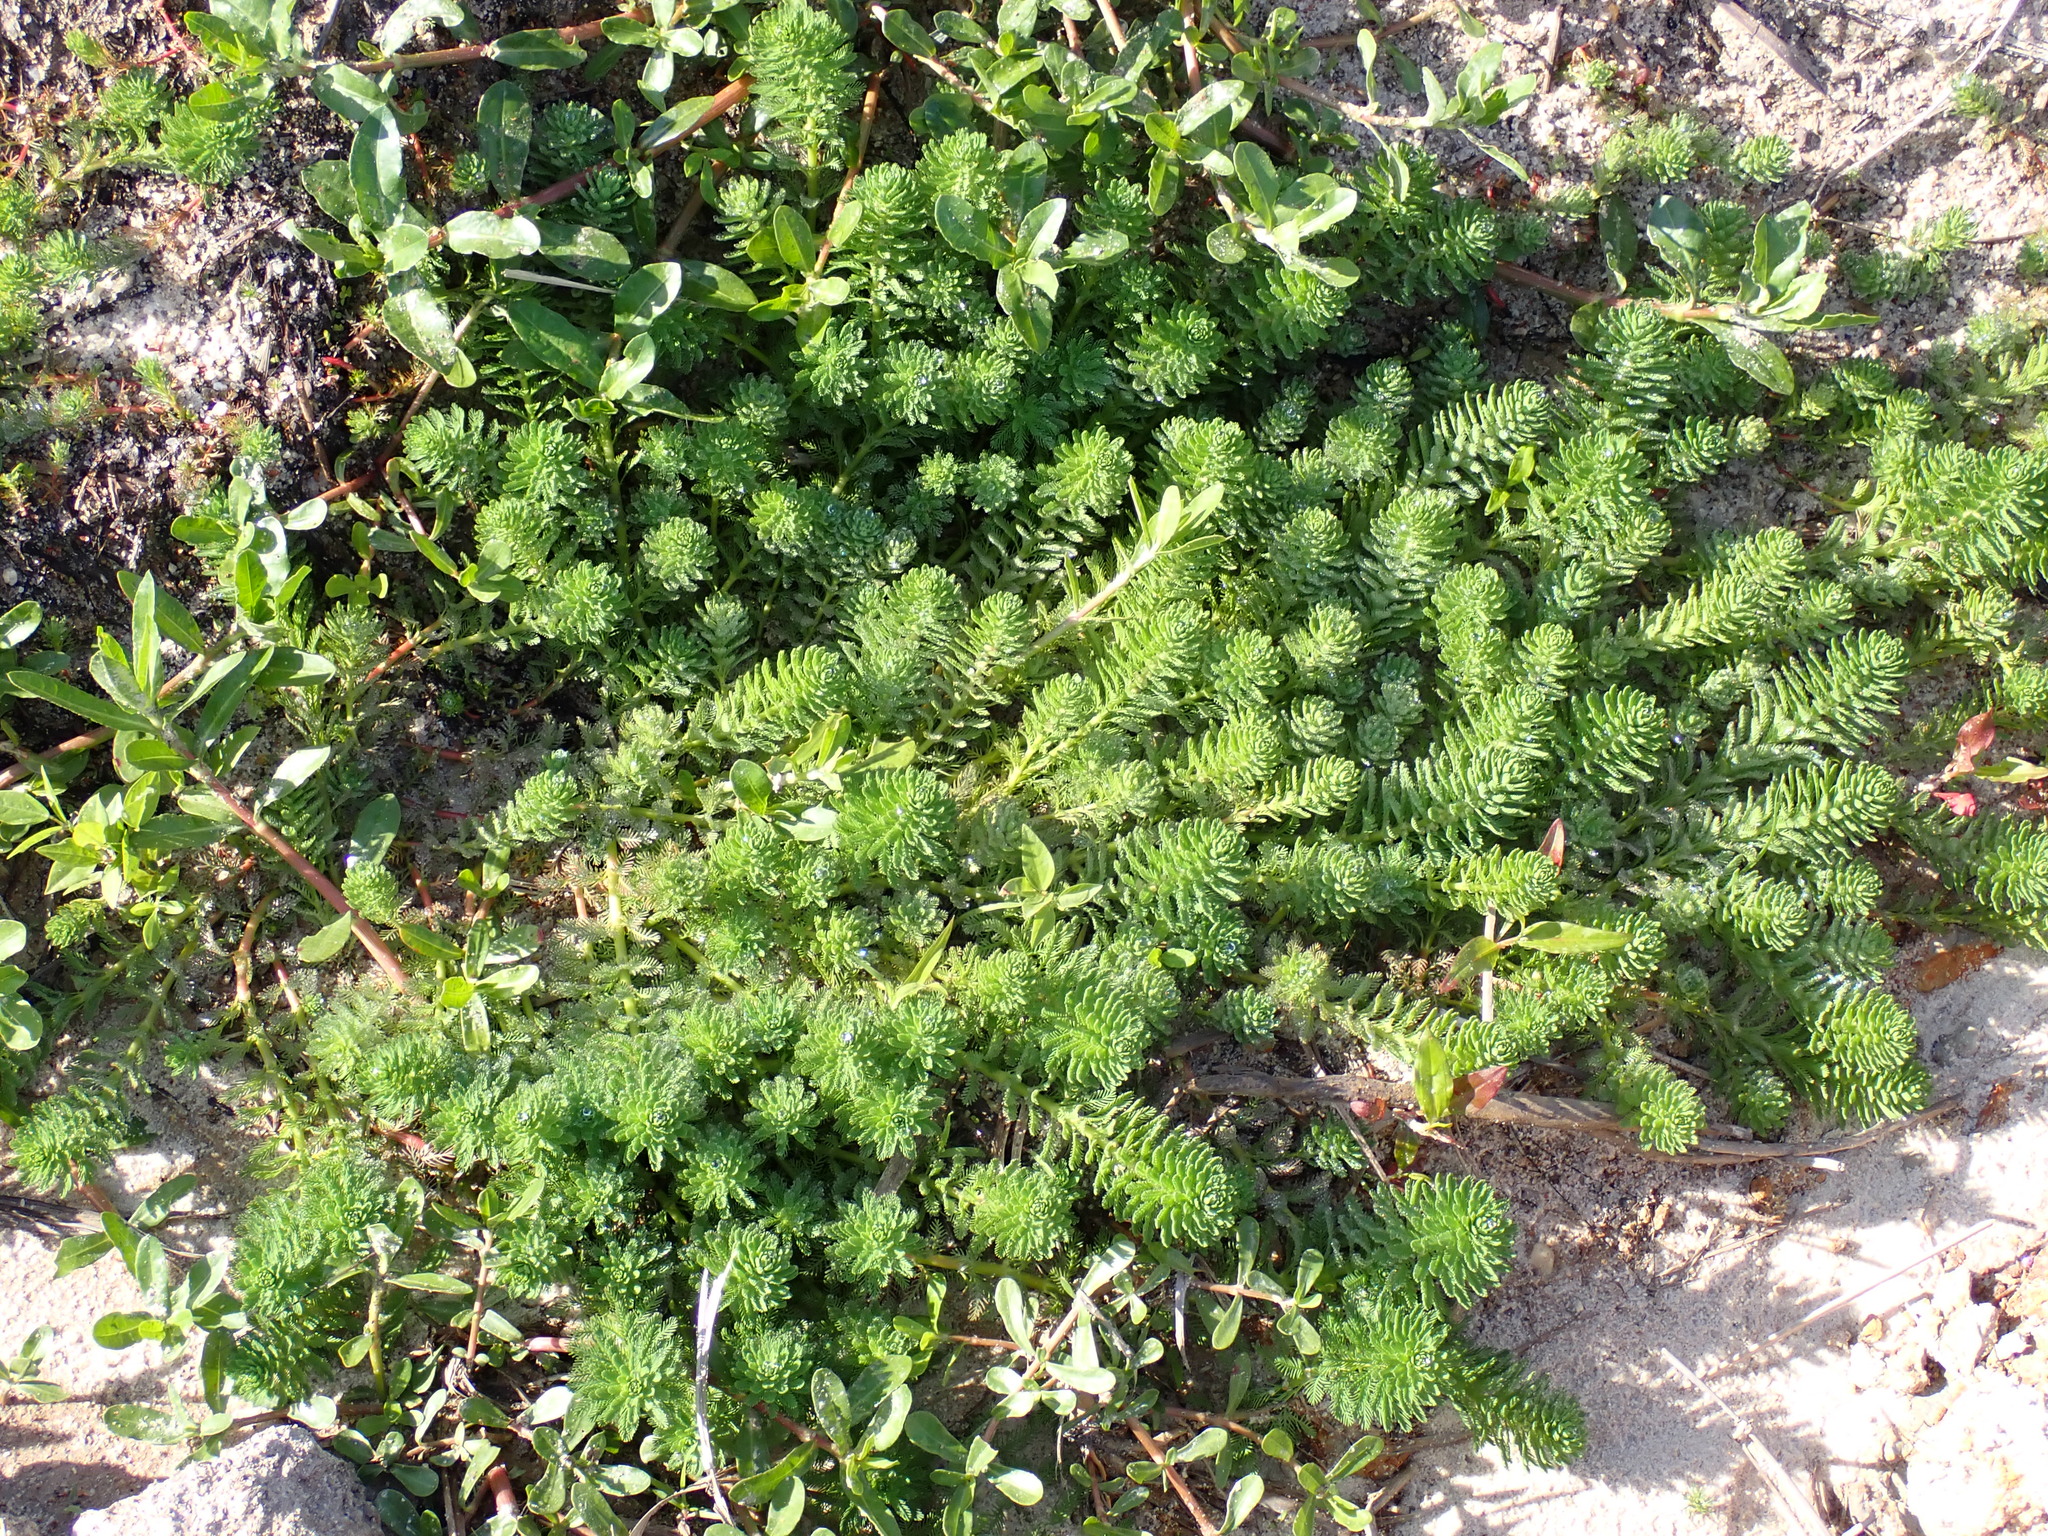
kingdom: Plantae
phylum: Tracheophyta
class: Magnoliopsida
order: Saxifragales
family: Haloragaceae
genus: Myriophyllum
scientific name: Myriophyllum aquaticum
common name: Parrot's feather
